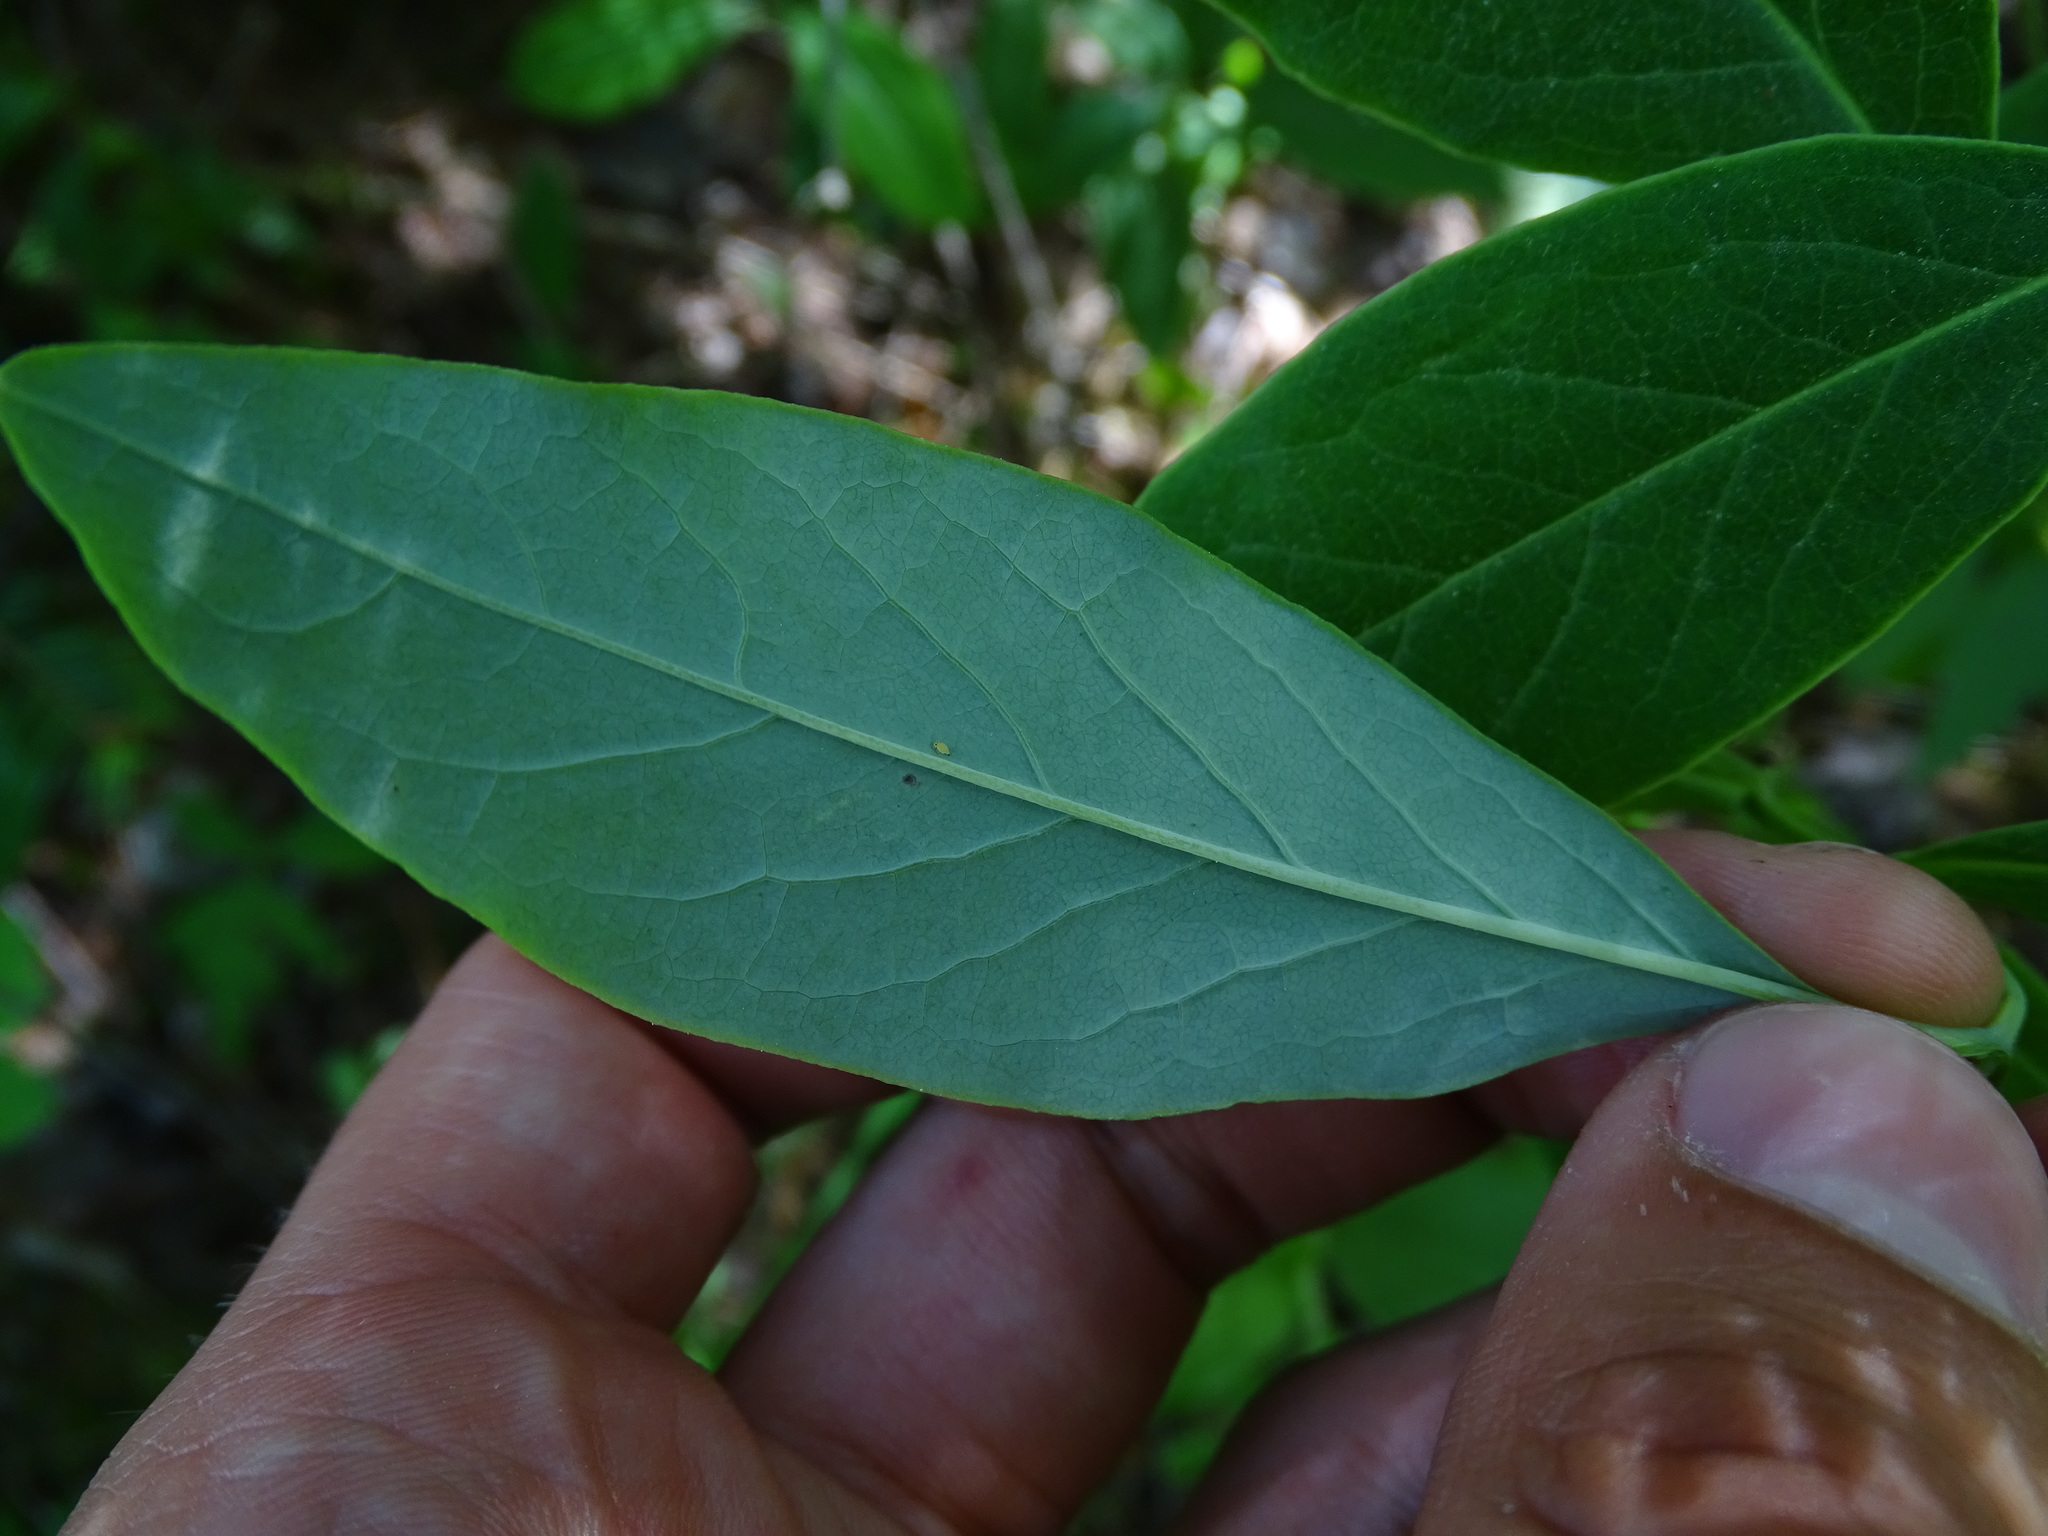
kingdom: Plantae
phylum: Tracheophyta
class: Magnoliopsida
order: Dipsacales
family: Caprifoliaceae
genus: Lonicera
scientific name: Lonicera oblongifolia
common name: Swamp fly honeysuckle
